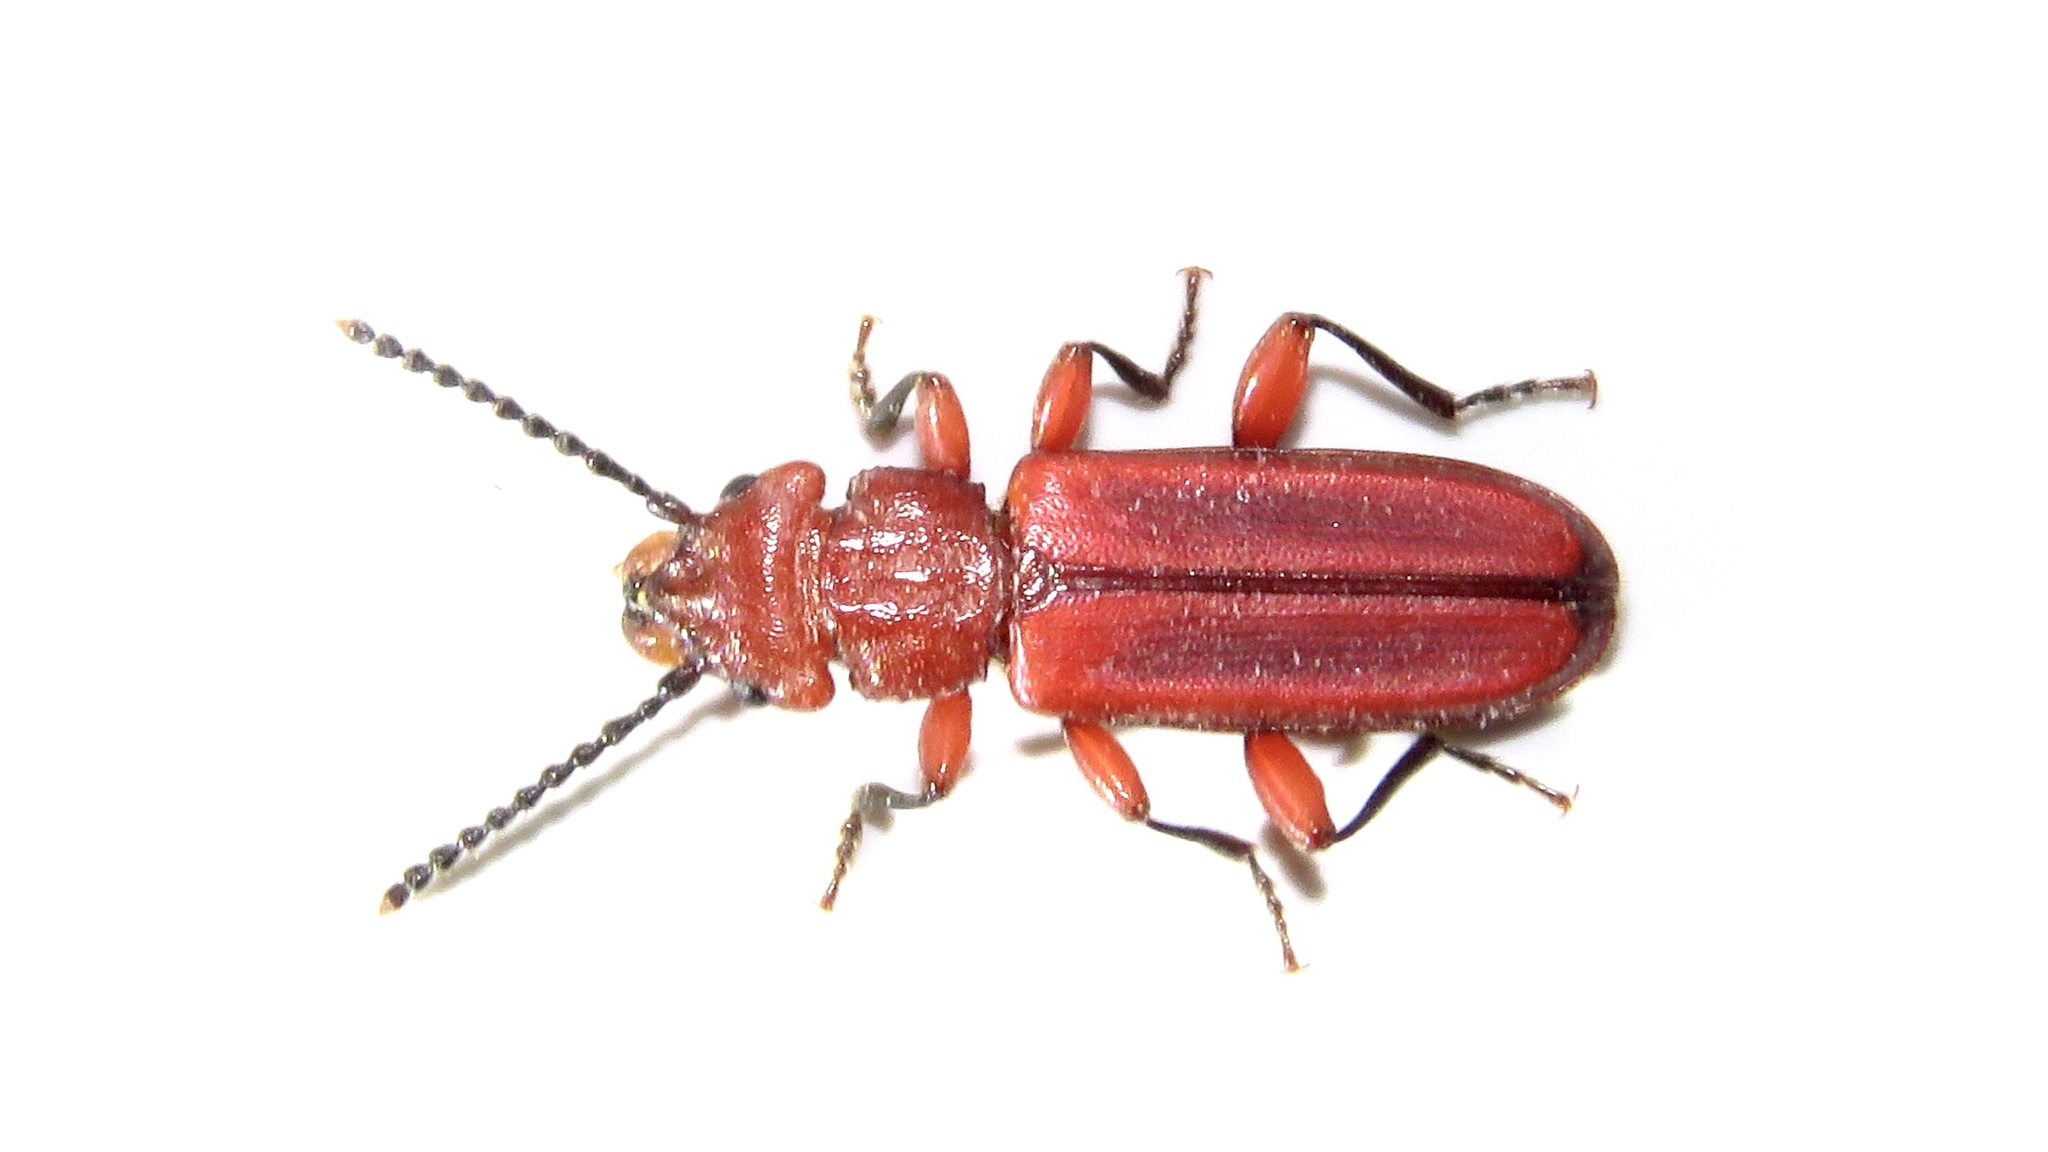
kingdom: Animalia
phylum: Arthropoda
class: Insecta
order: Coleoptera
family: Cucujidae
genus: Cucujus
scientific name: Cucujus clavipes
